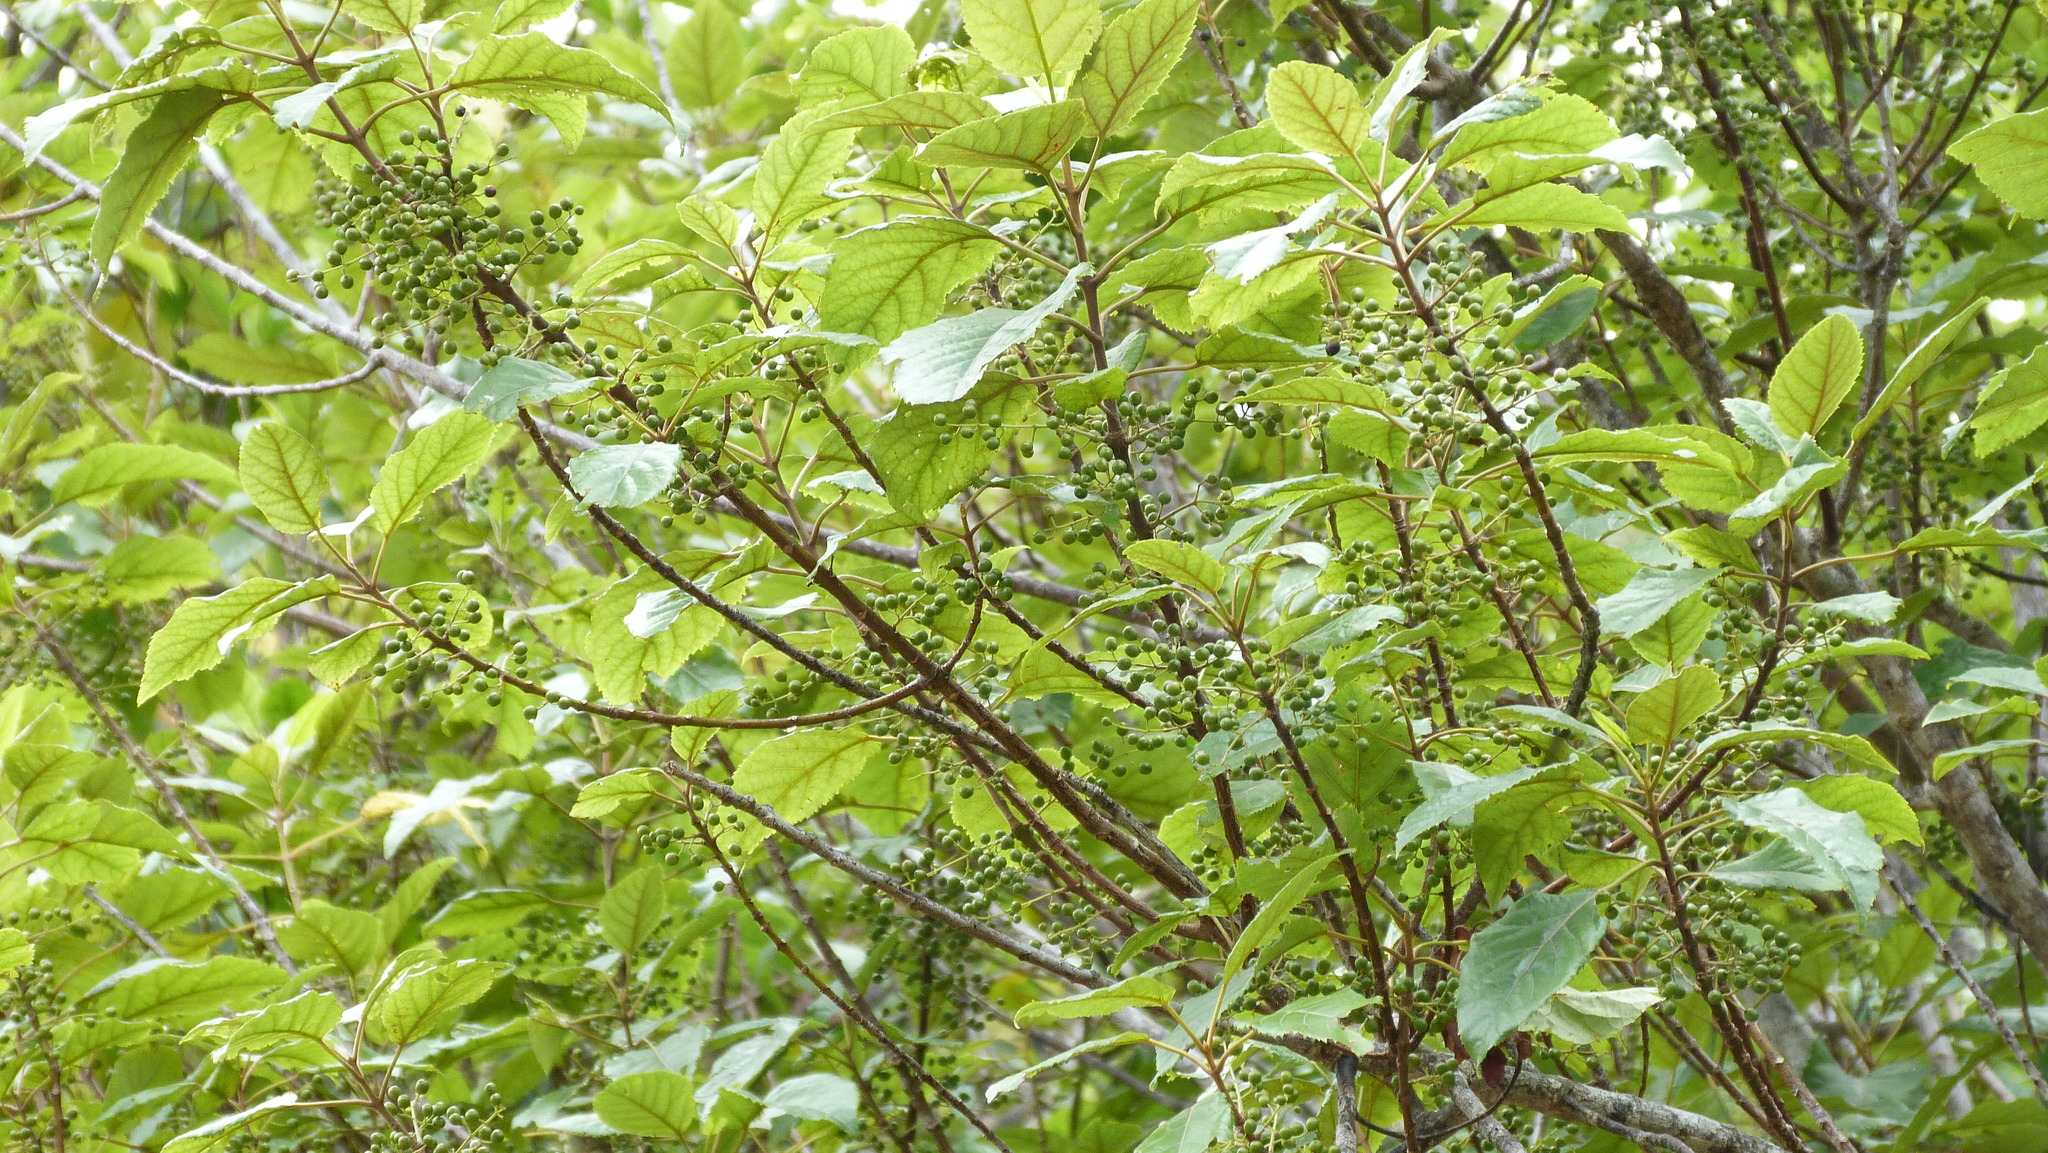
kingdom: Plantae
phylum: Tracheophyta
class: Magnoliopsida
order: Oxalidales
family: Elaeocarpaceae
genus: Aristotelia
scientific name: Aristotelia serrata
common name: New zealand wineberry
